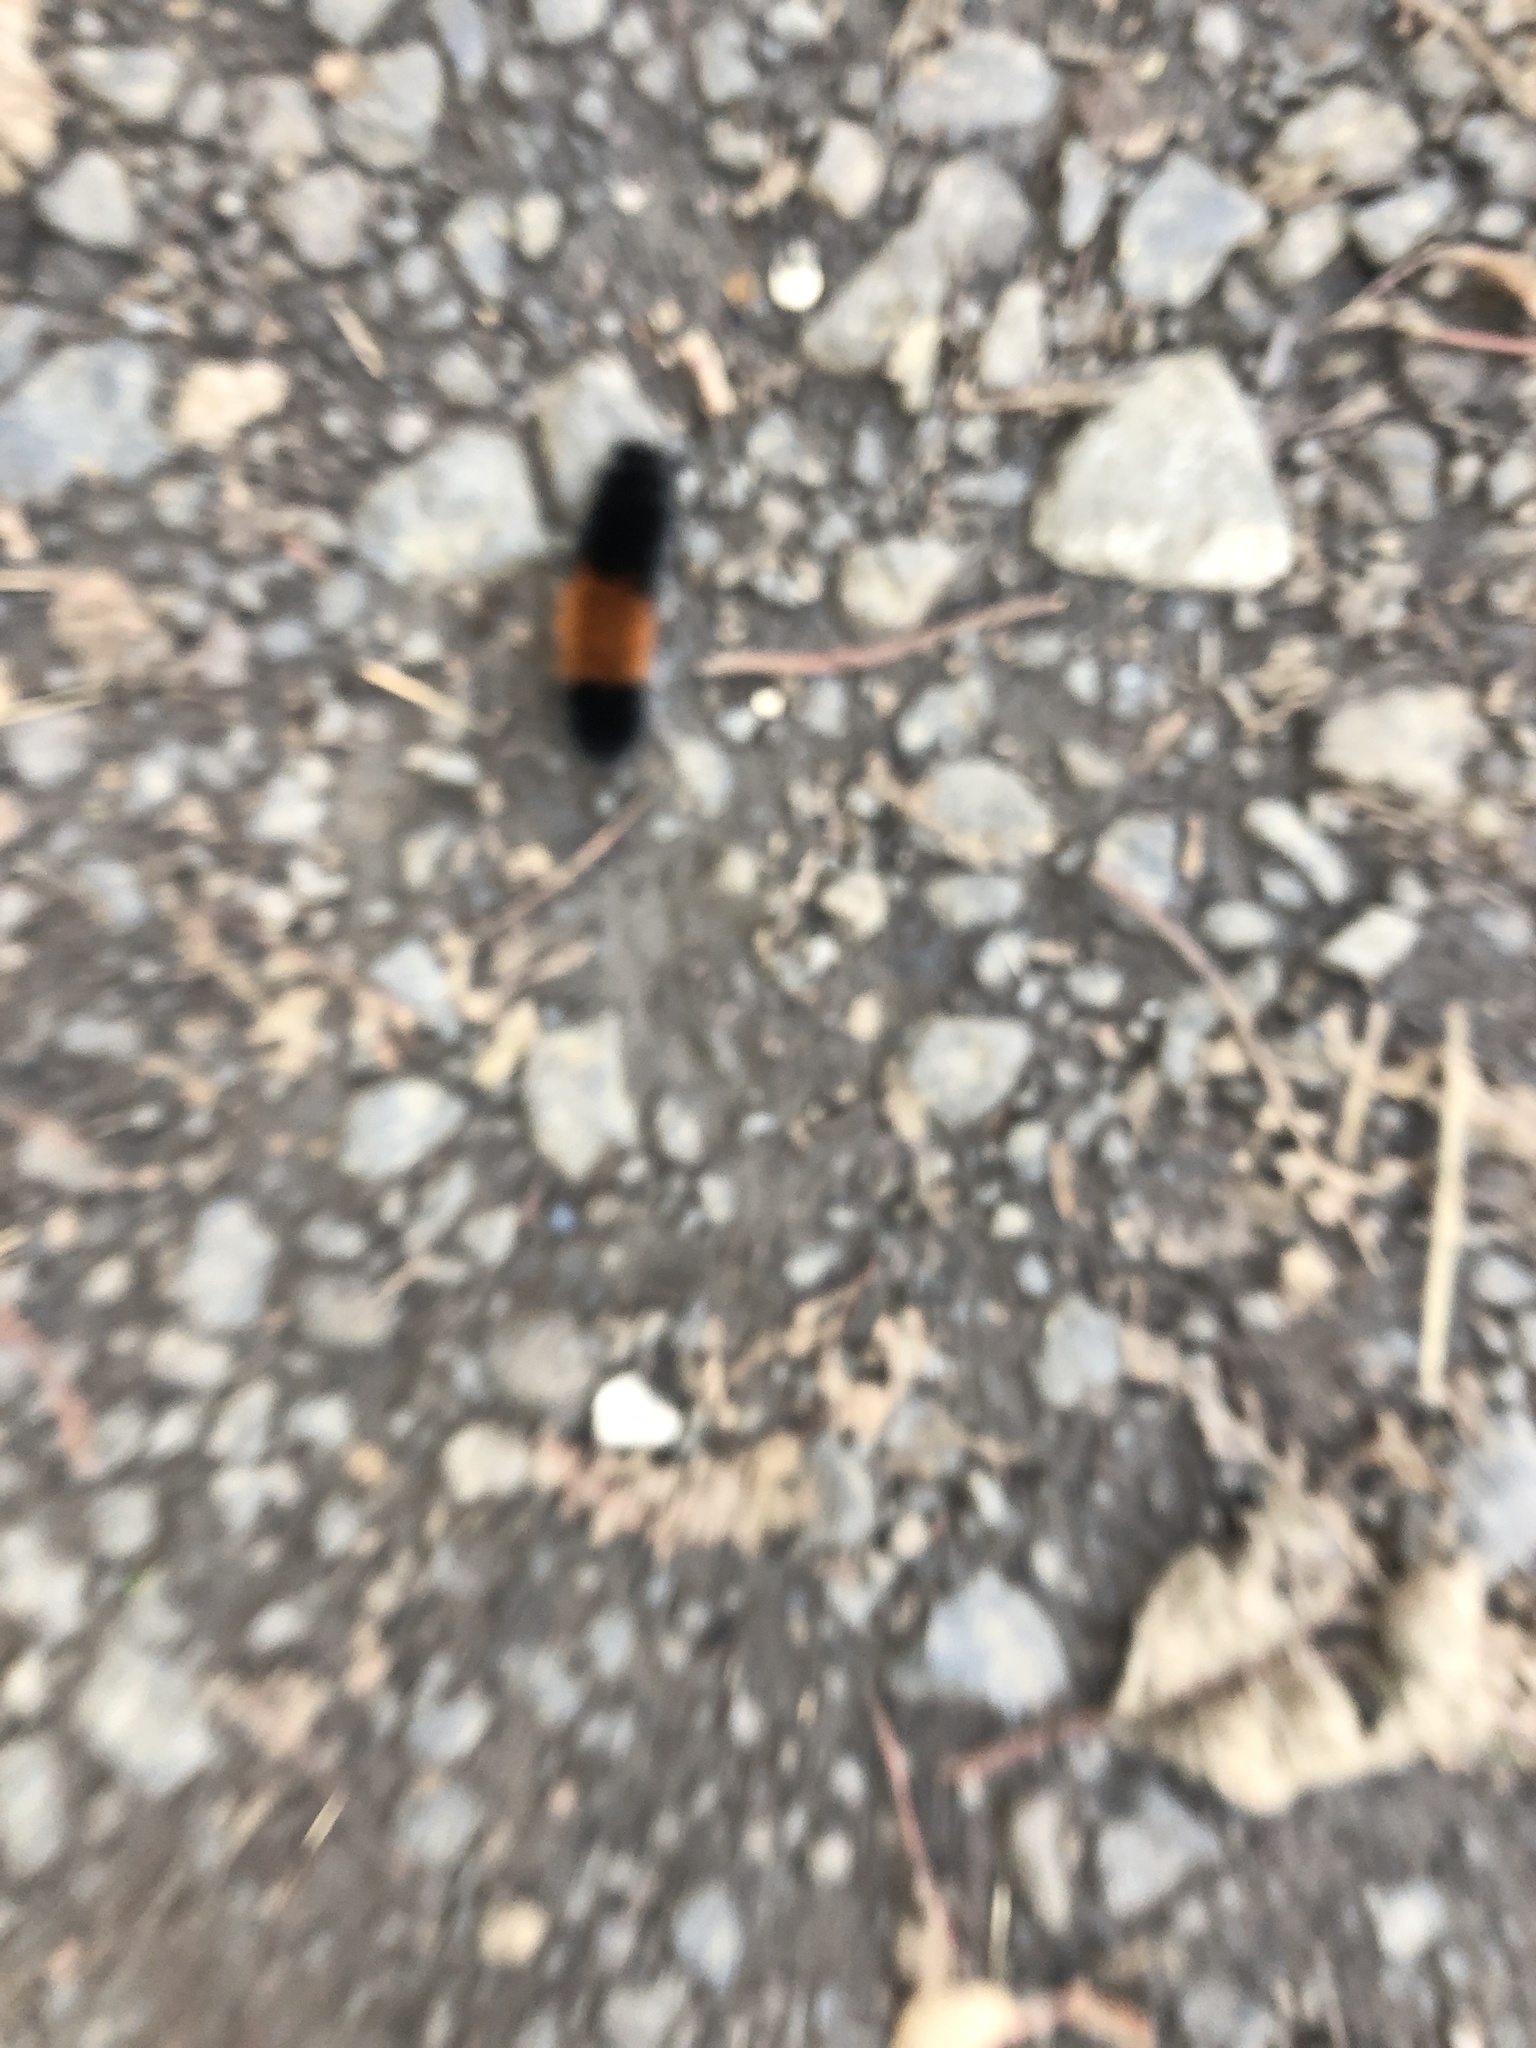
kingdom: Animalia
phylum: Arthropoda
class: Insecta
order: Lepidoptera
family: Erebidae
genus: Pyrrharctia
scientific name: Pyrrharctia isabella
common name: Isabella tiger moth
